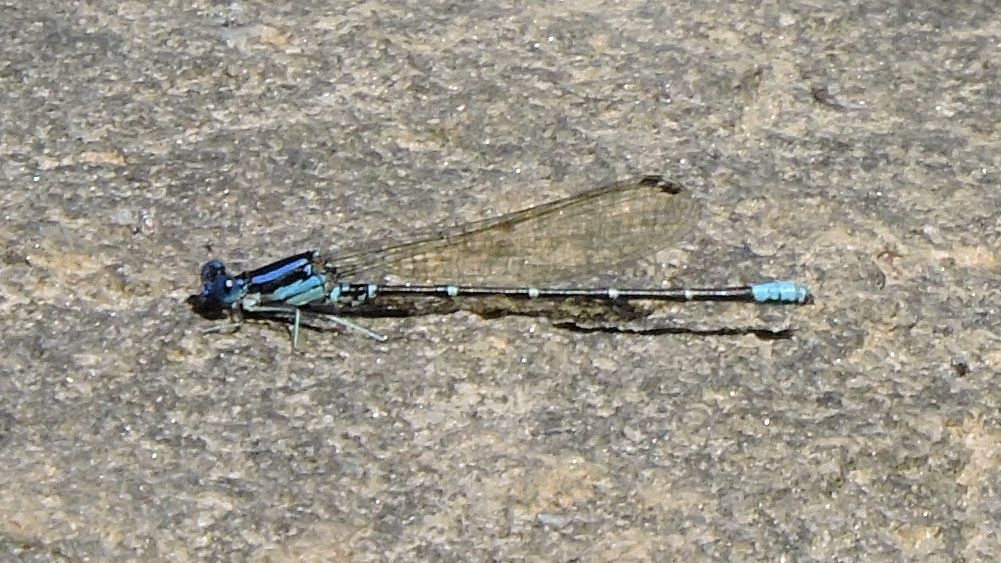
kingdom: Animalia
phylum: Arthropoda
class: Insecta
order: Odonata
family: Coenagrionidae
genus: Argia
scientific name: Argia sedula
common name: Blue-ringed dancer
